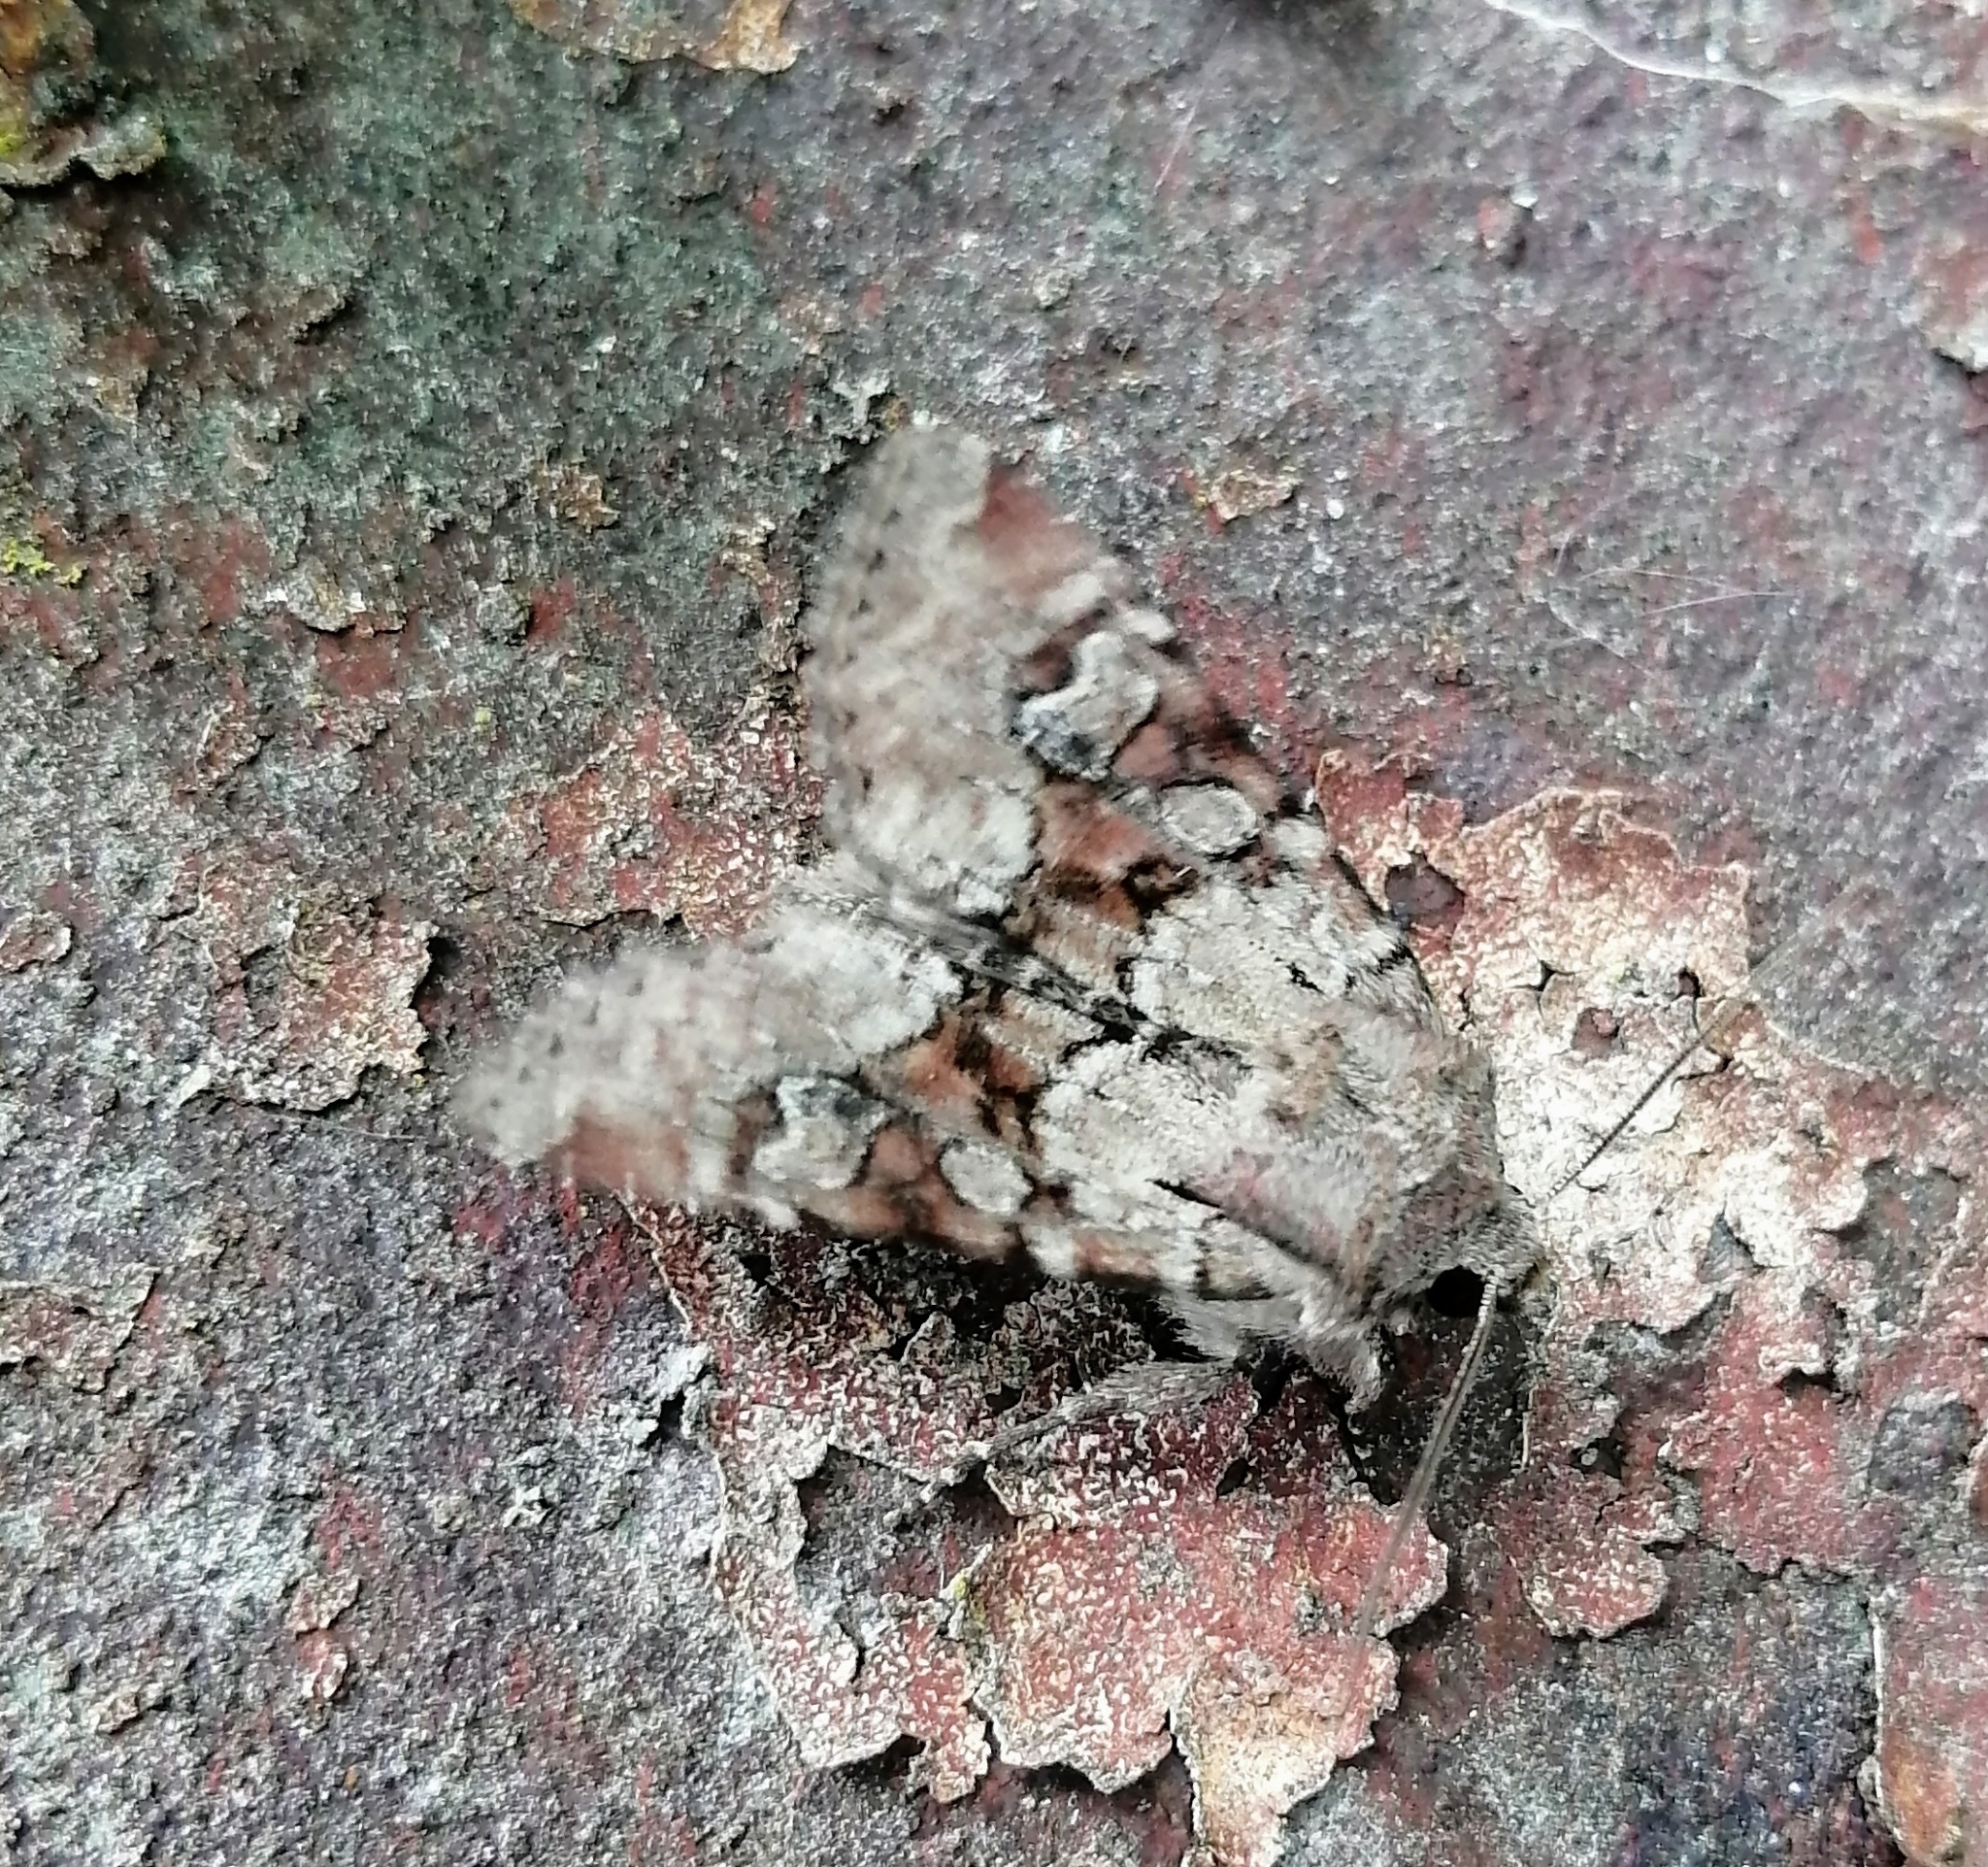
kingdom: Animalia
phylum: Arthropoda
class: Insecta
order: Lepidoptera
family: Noctuidae
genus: Apamea
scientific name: Apamea sordens
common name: Rustic shoulder-knot
